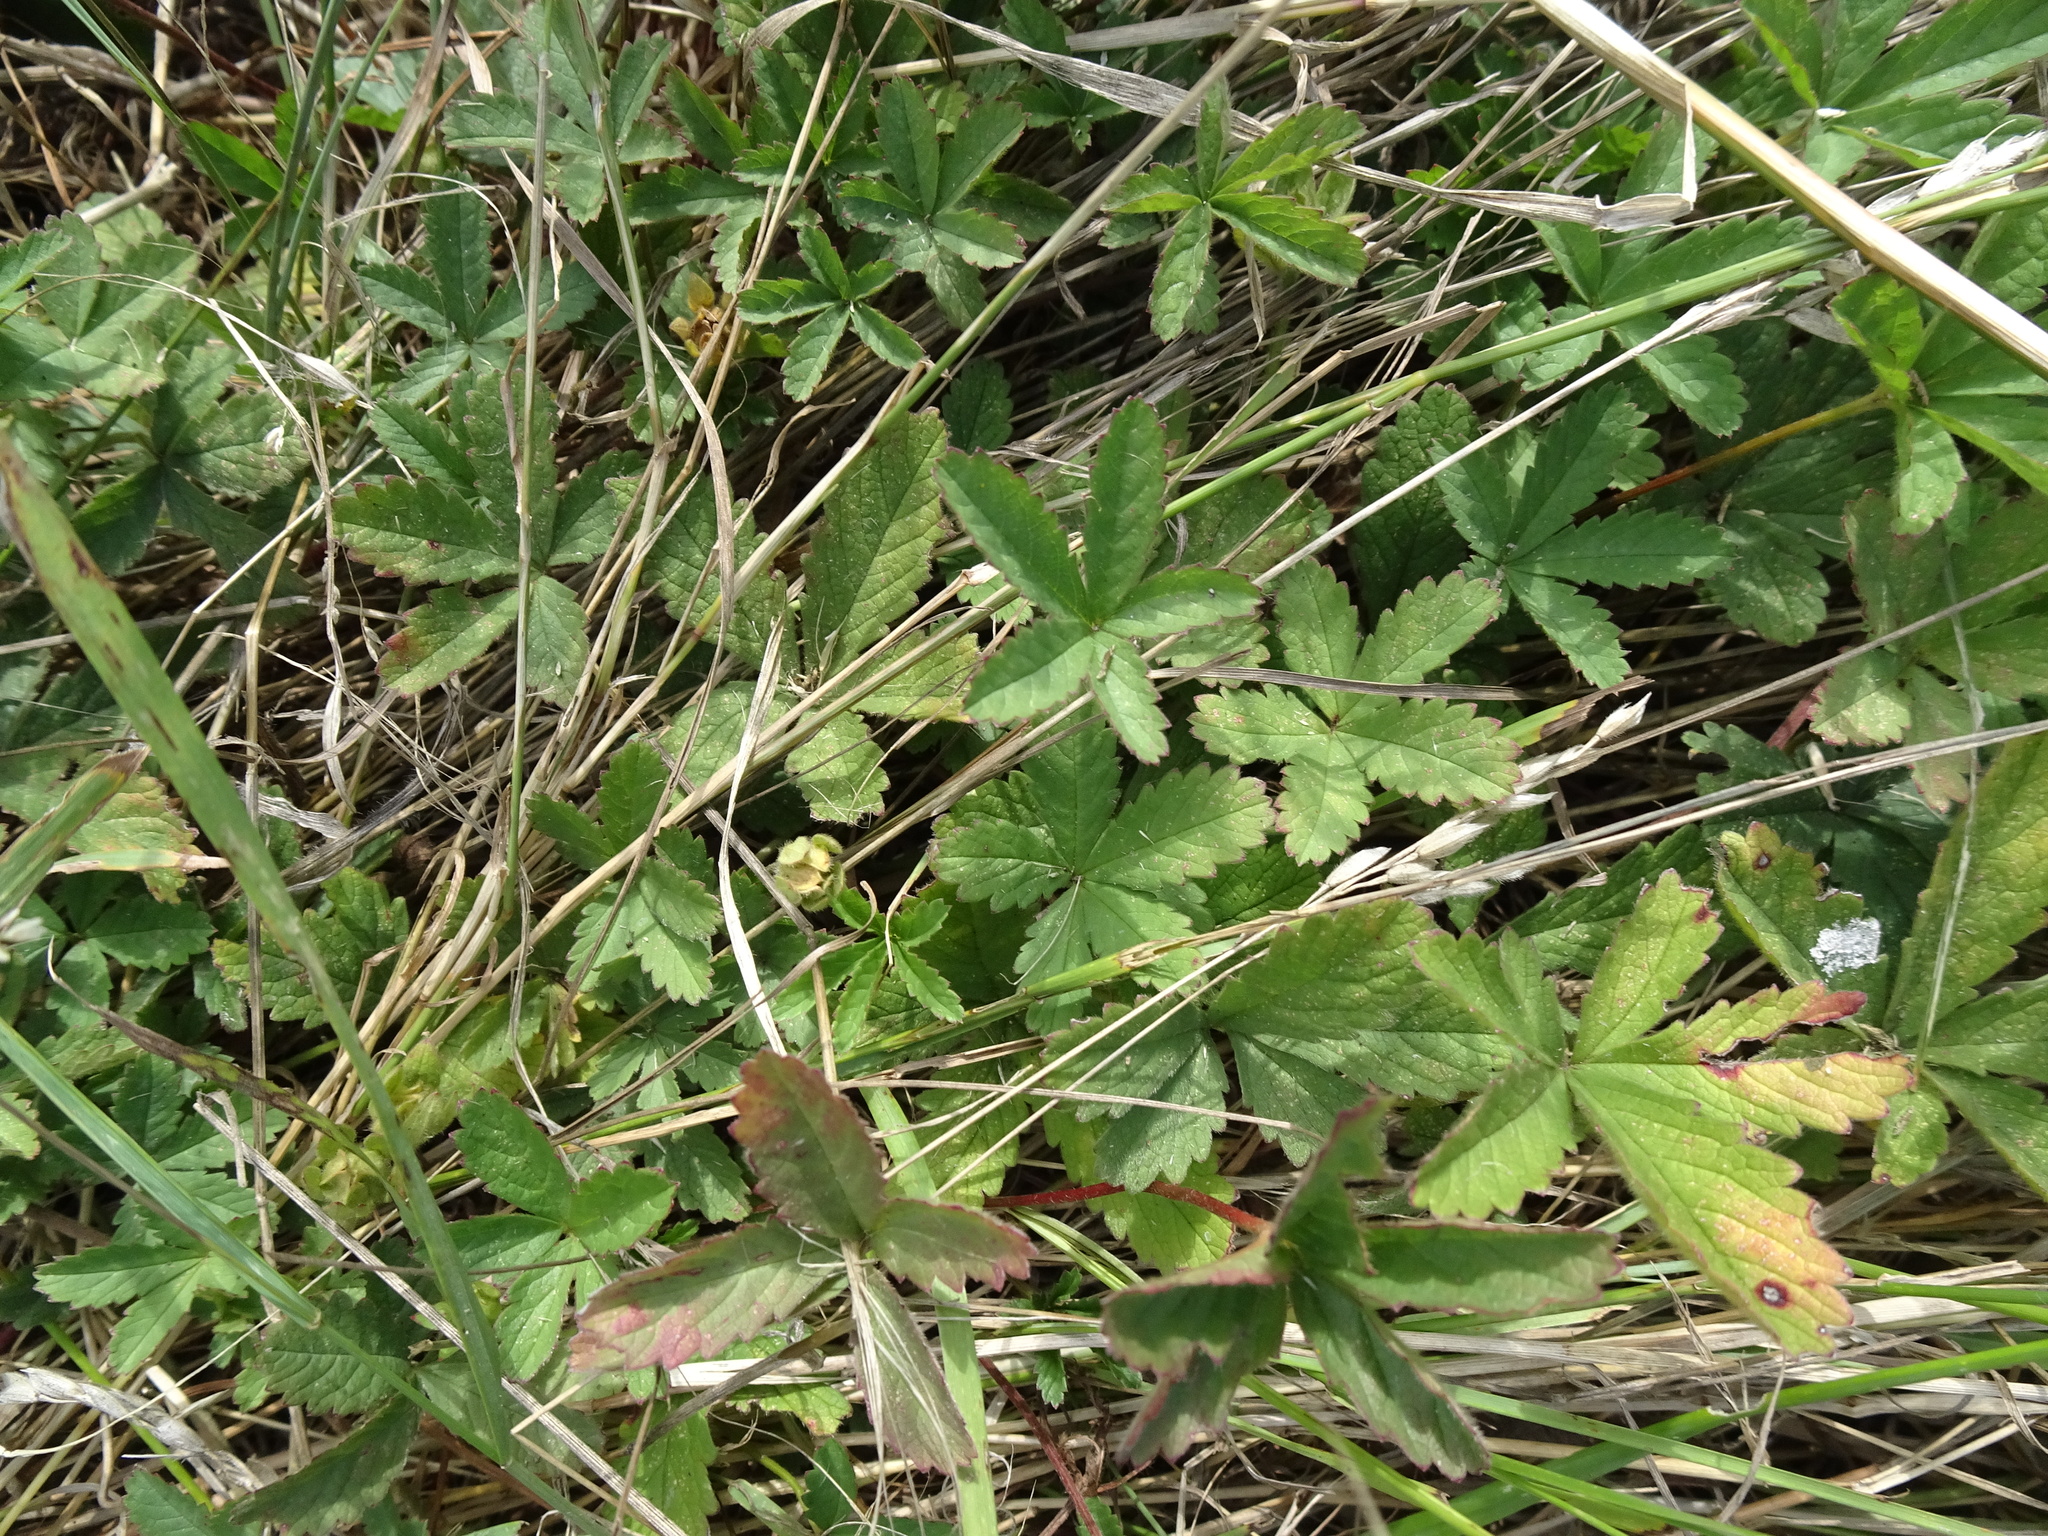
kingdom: Plantae
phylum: Tracheophyta
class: Magnoliopsida
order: Rosales
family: Rosaceae
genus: Potentilla
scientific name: Potentilla reptans
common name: Creeping cinquefoil
